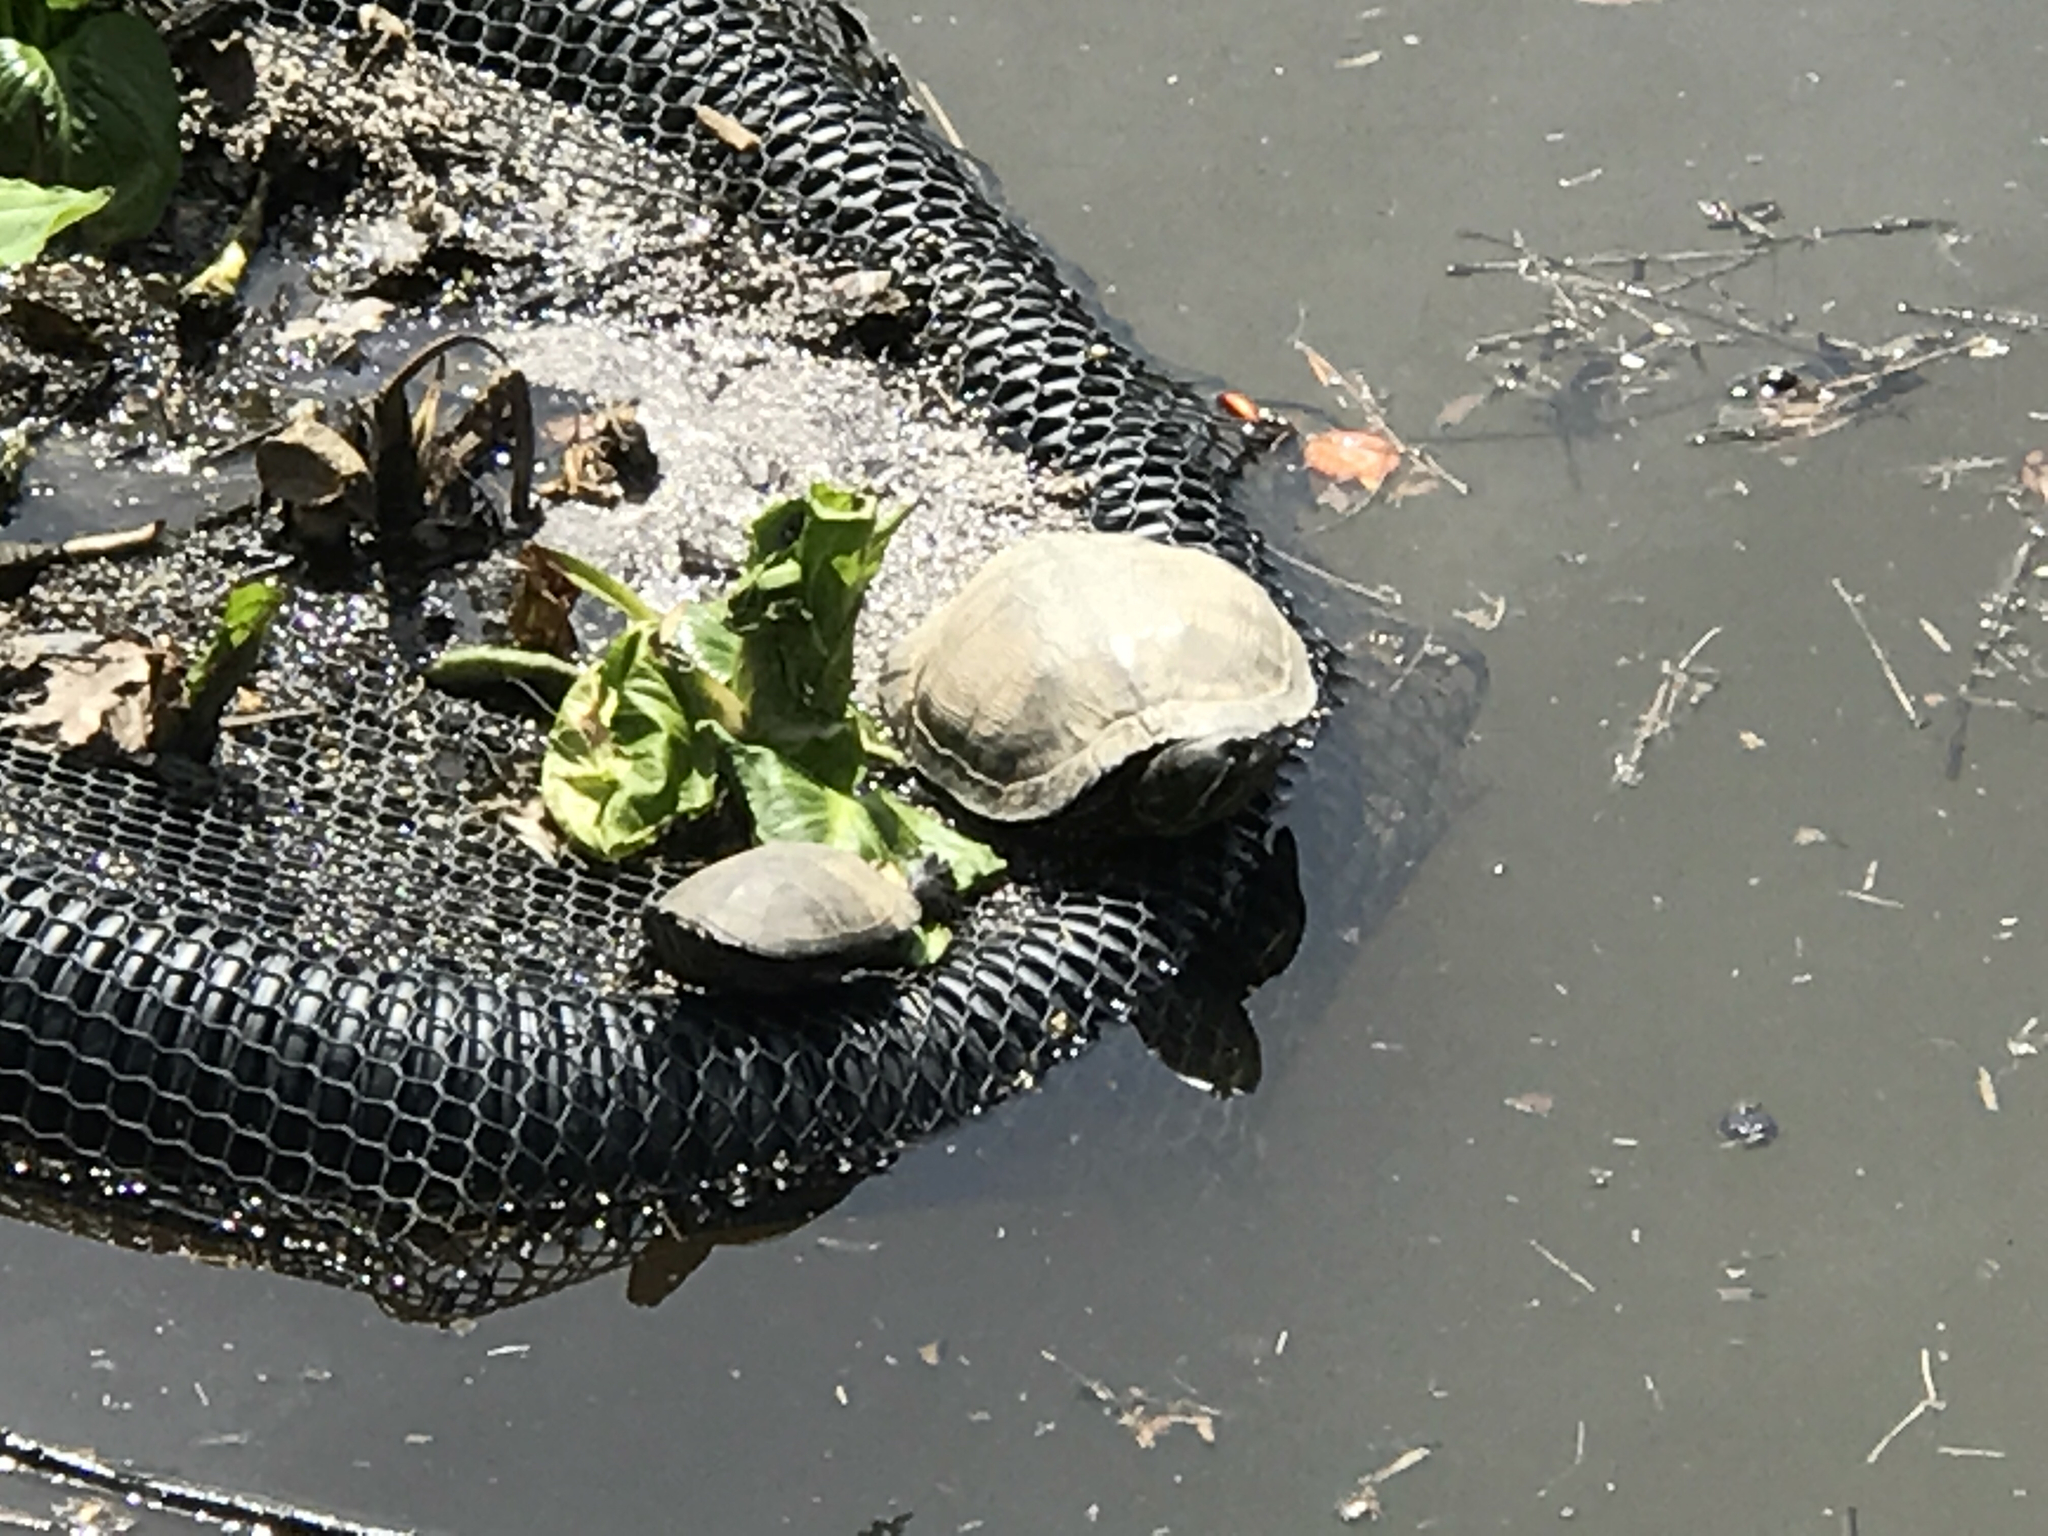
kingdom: Animalia
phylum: Chordata
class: Testudines
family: Emydidae
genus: Trachemys
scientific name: Trachemys scripta
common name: Slider
